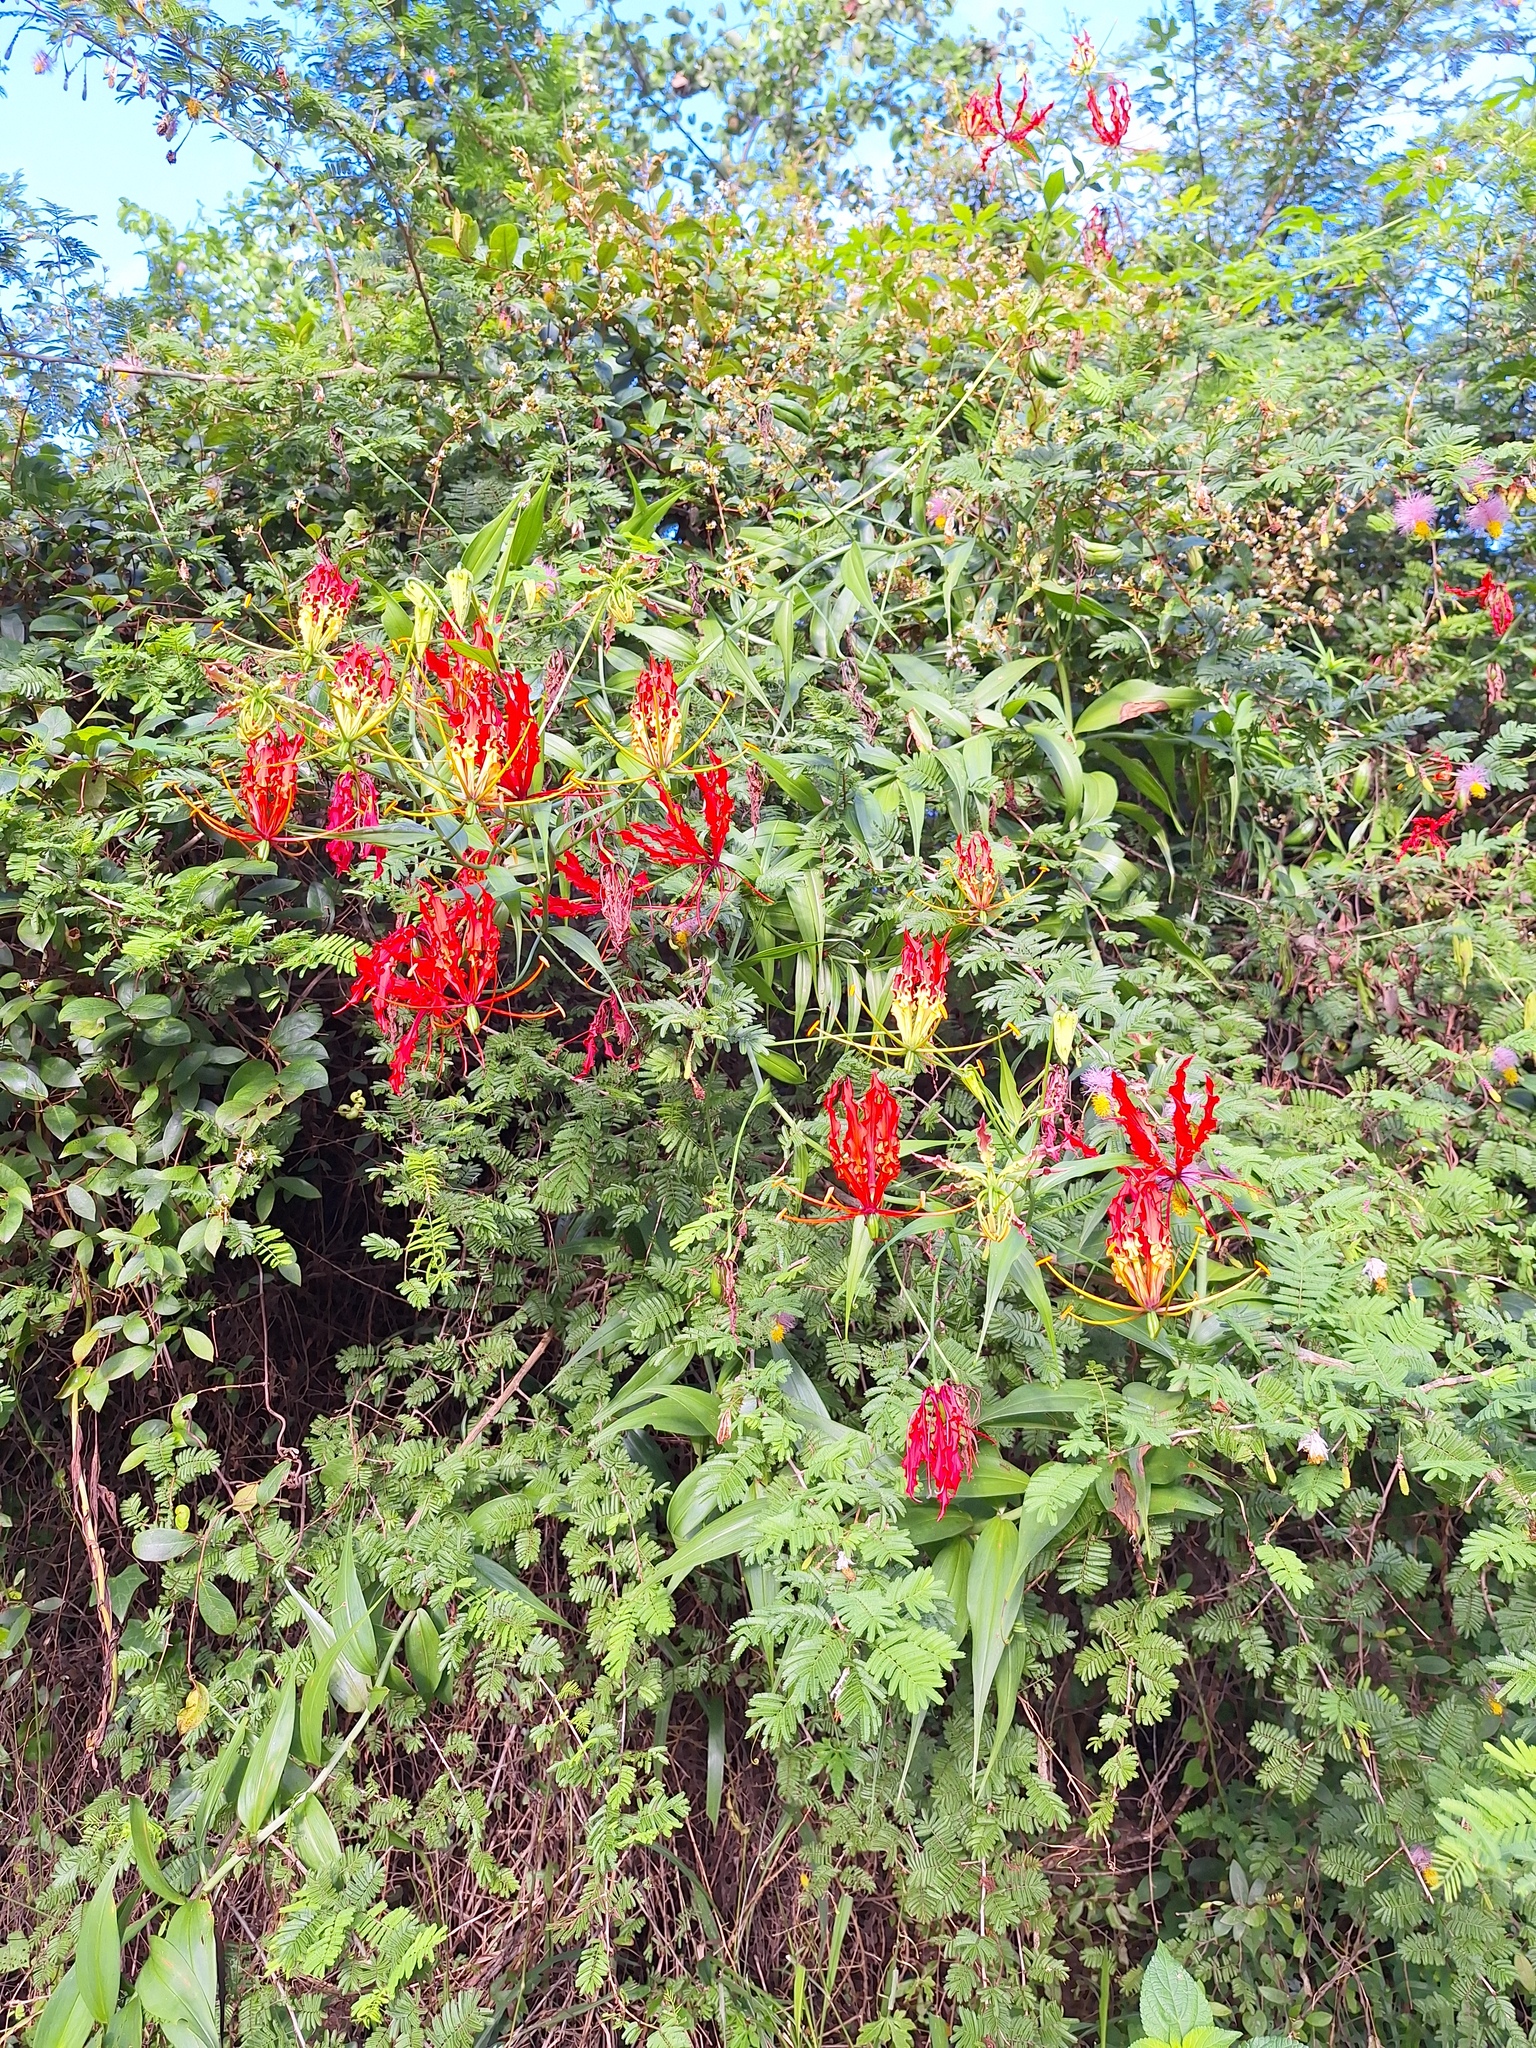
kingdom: Plantae
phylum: Tracheophyta
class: Liliopsida
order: Liliales
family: Colchicaceae
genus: Gloriosa
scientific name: Gloriosa superba
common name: Flame lily
